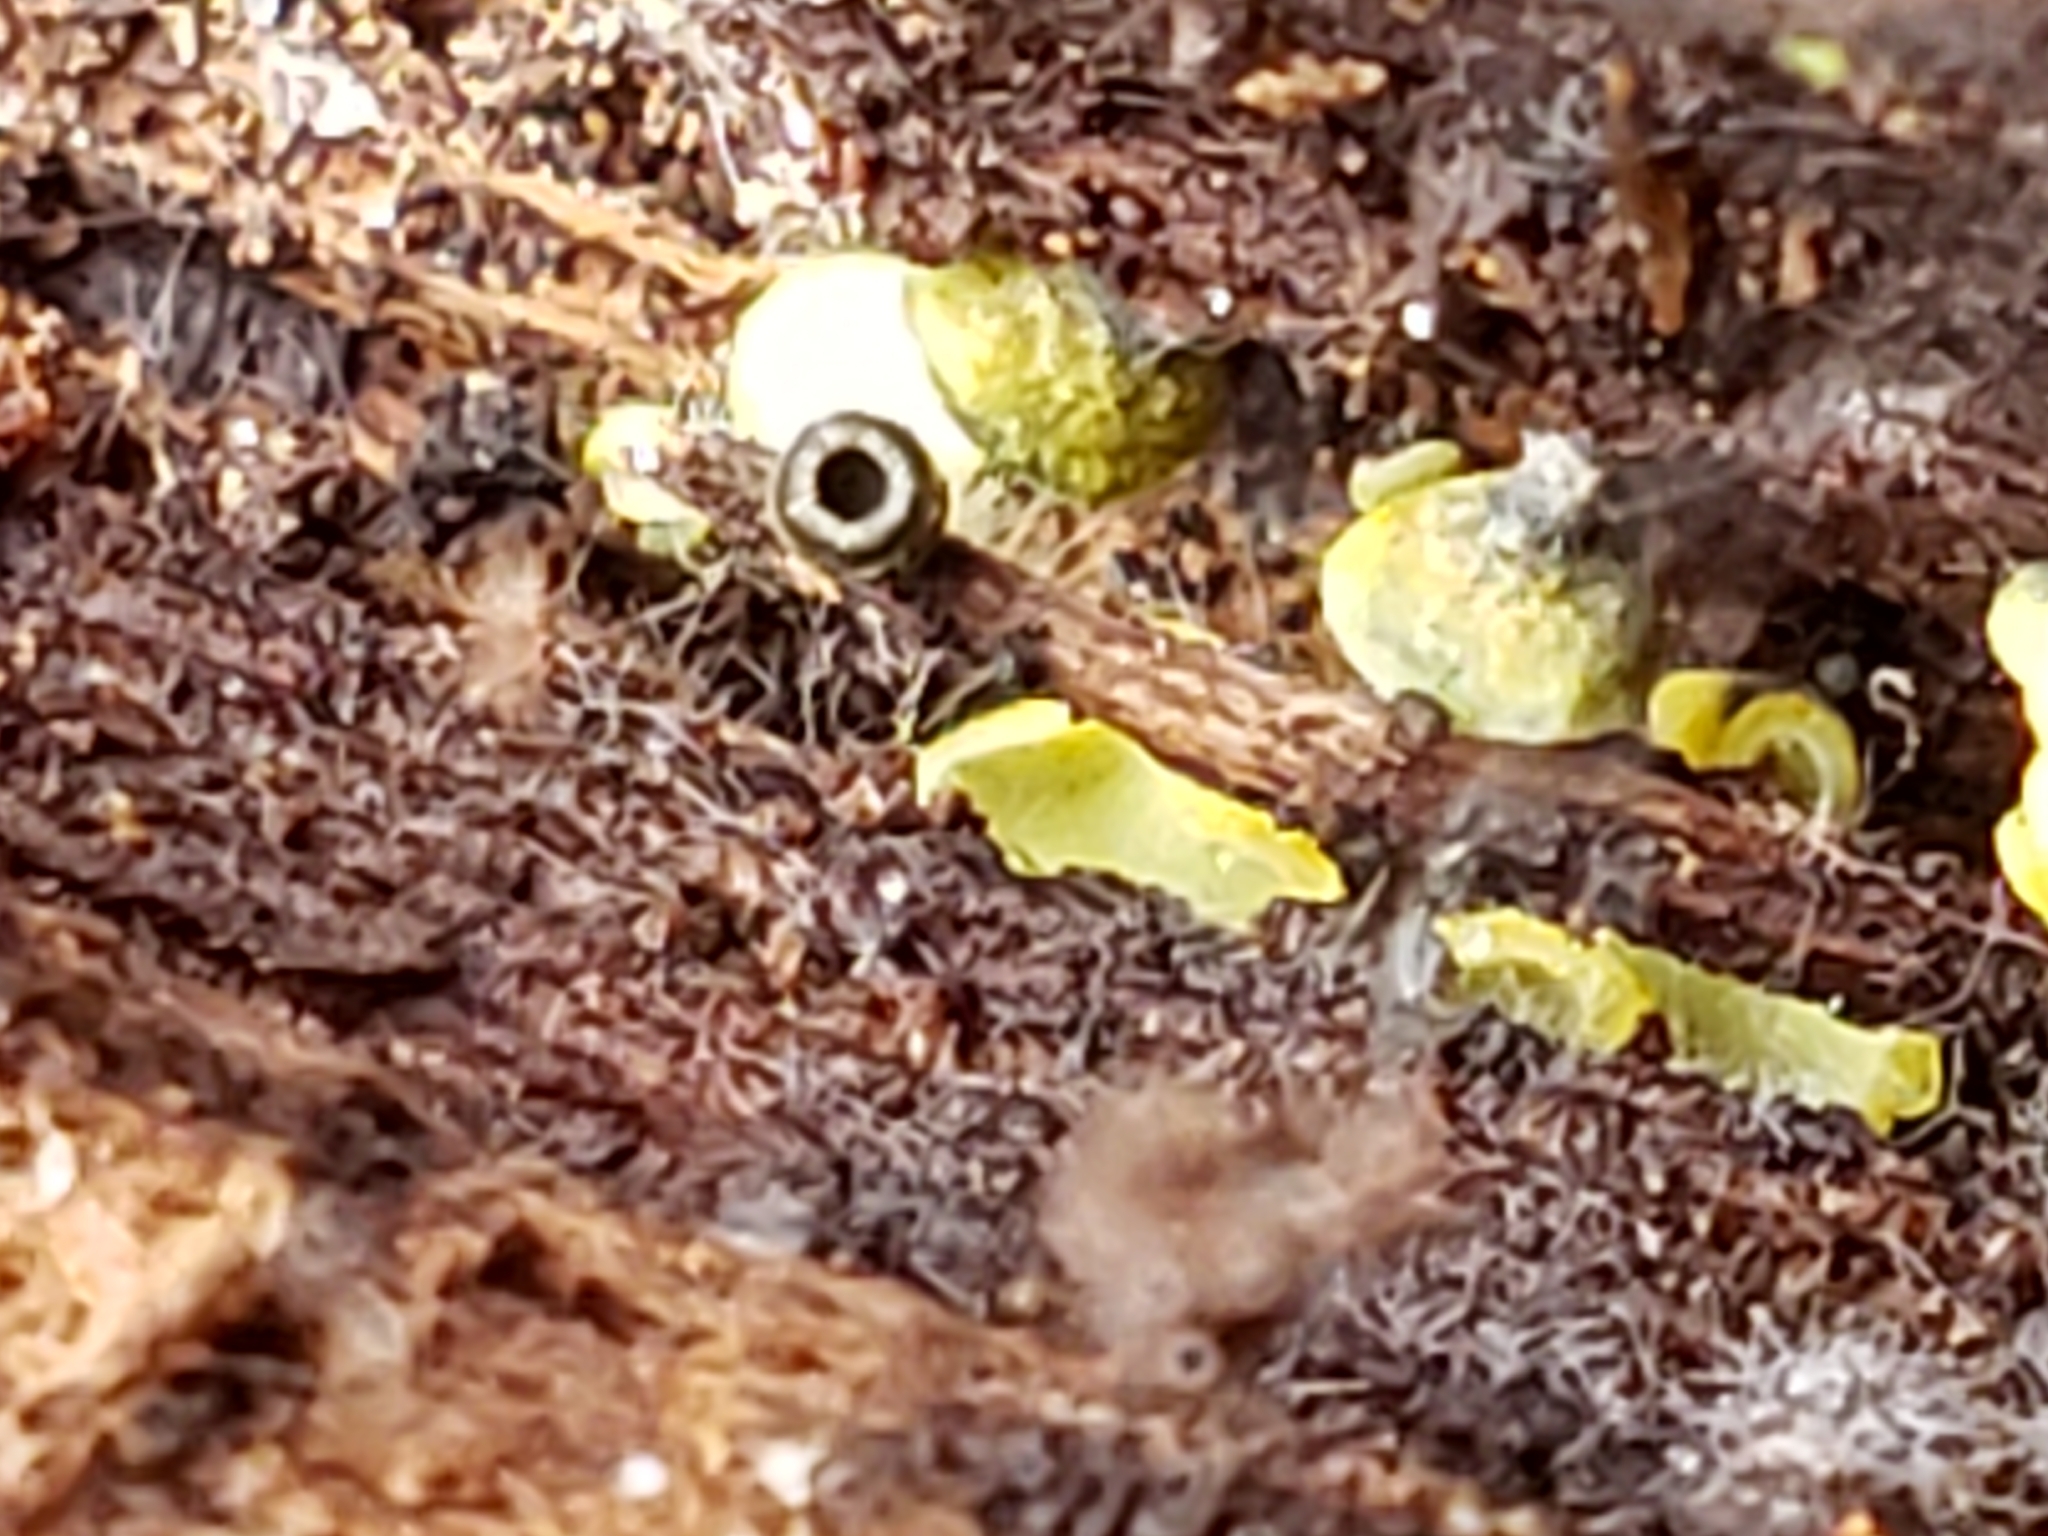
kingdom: Fungi
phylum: Ascomycota
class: Leotiomycetes
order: Helotiales
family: Chlorospleniaceae
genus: Chlorosplenium
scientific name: Chlorosplenium chlora
